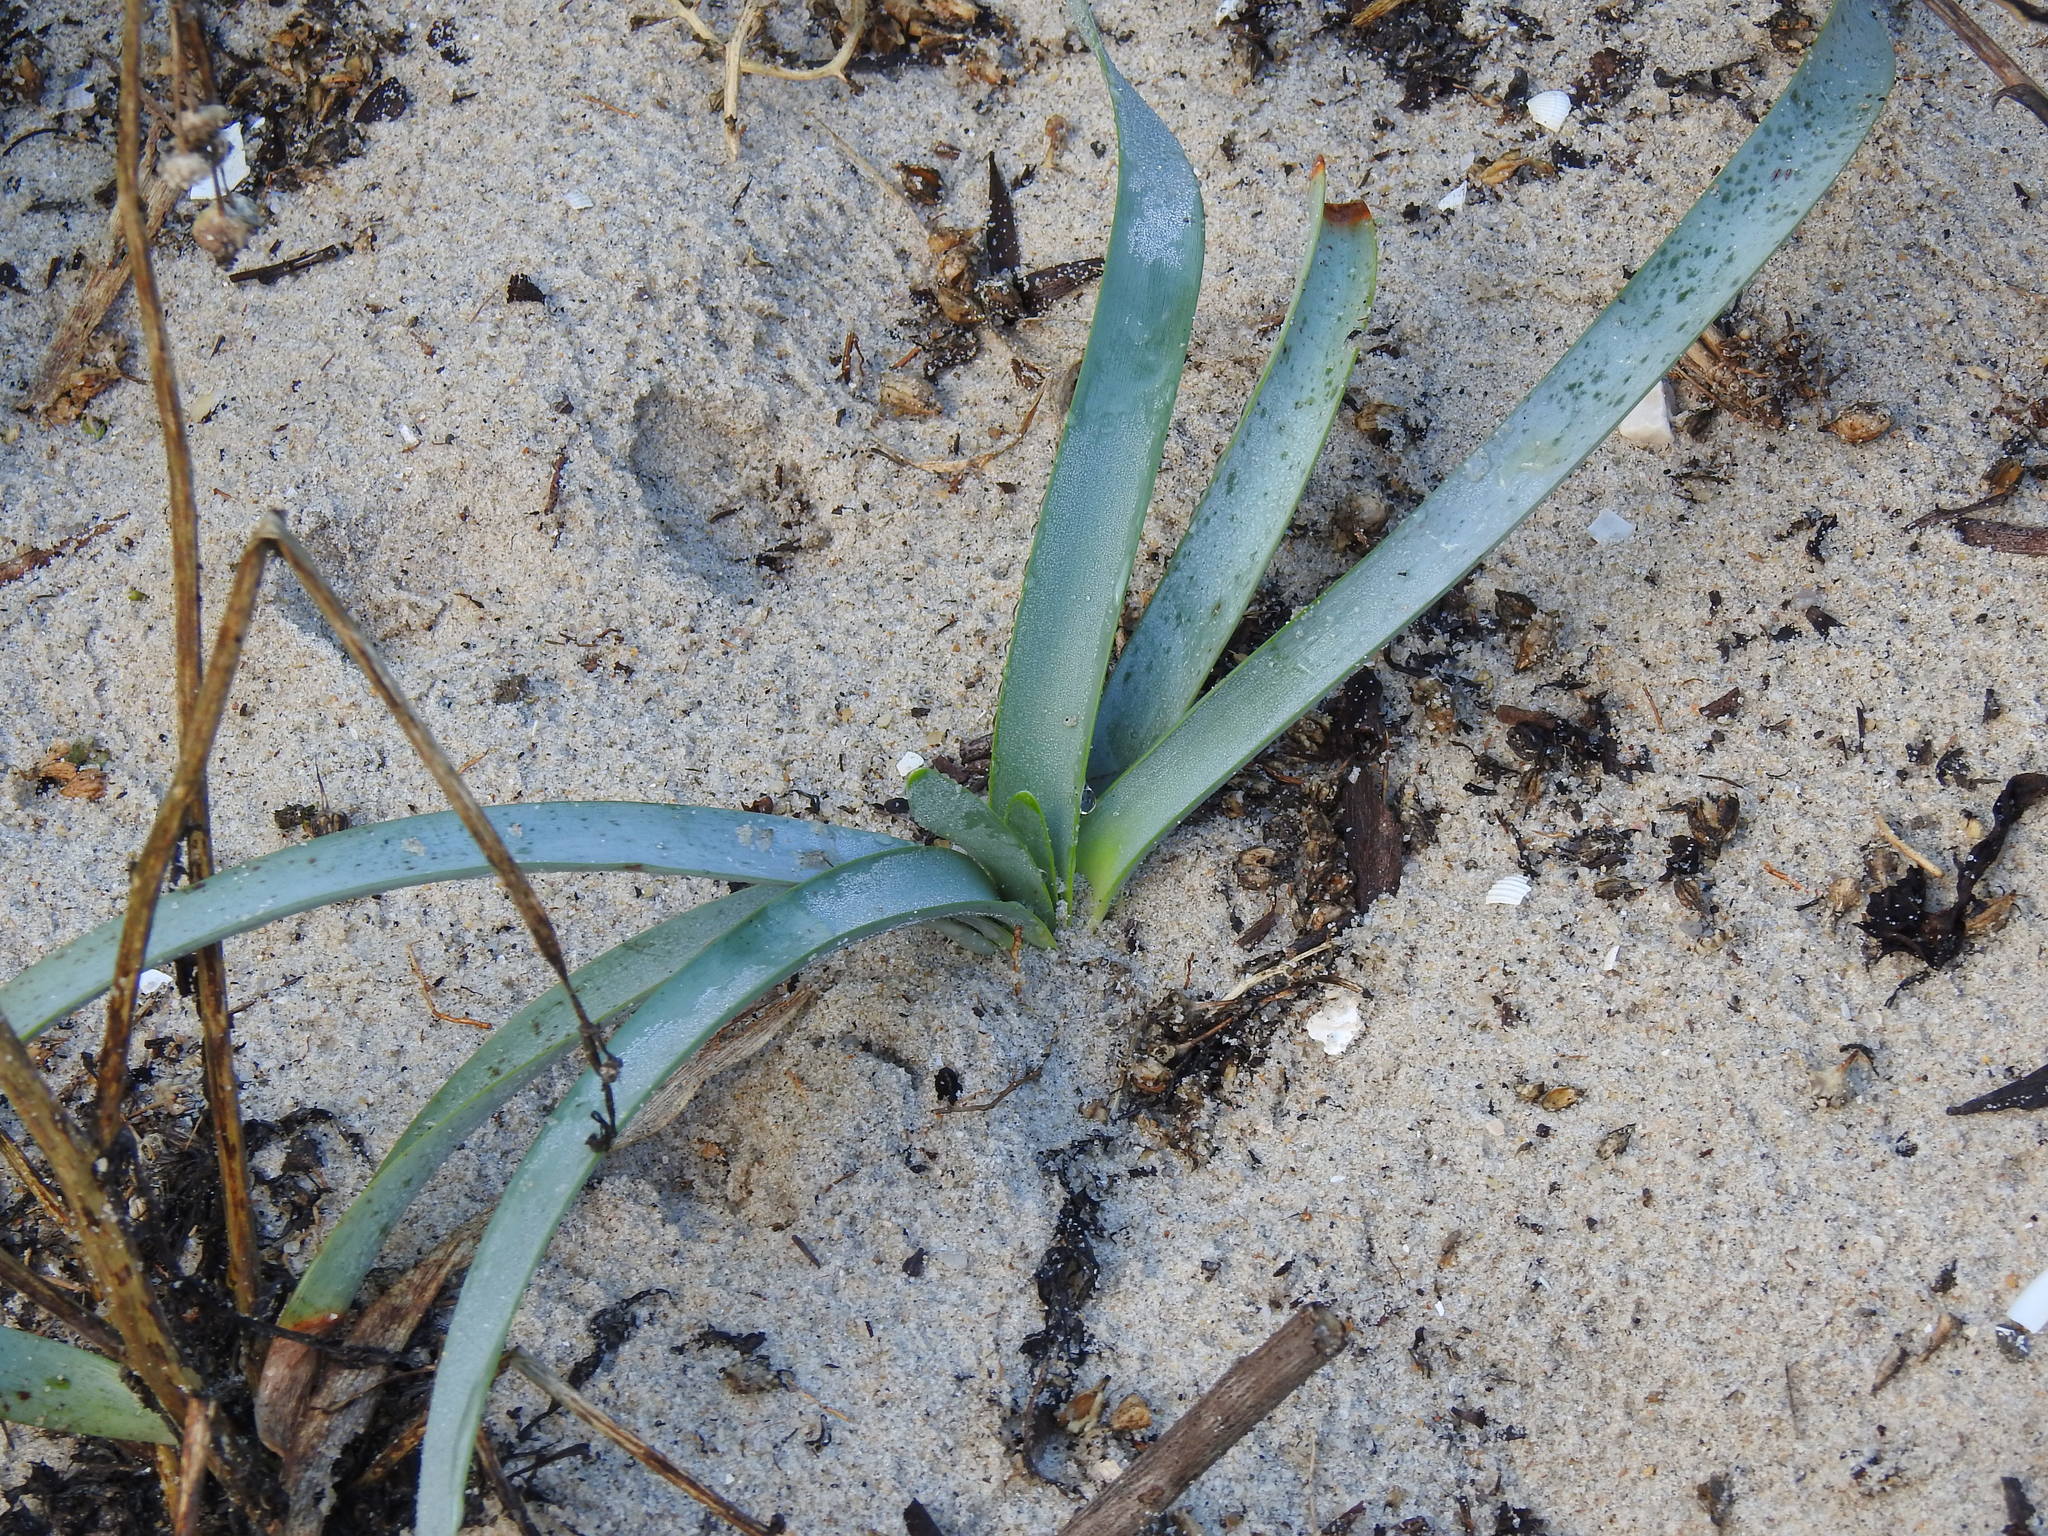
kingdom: Plantae
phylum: Tracheophyta
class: Liliopsida
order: Asparagales
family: Amaryllidaceae
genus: Pancratium
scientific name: Pancratium maritimum
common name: Sea-daffodil
